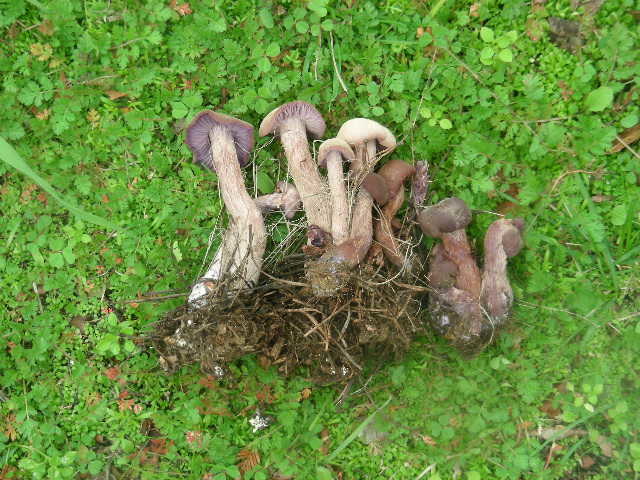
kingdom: Fungi
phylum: Basidiomycota
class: Agaricomycetes
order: Agaricales
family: Hydnangiaceae
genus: Laccaria
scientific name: Laccaria amethysteo-occidentalis
